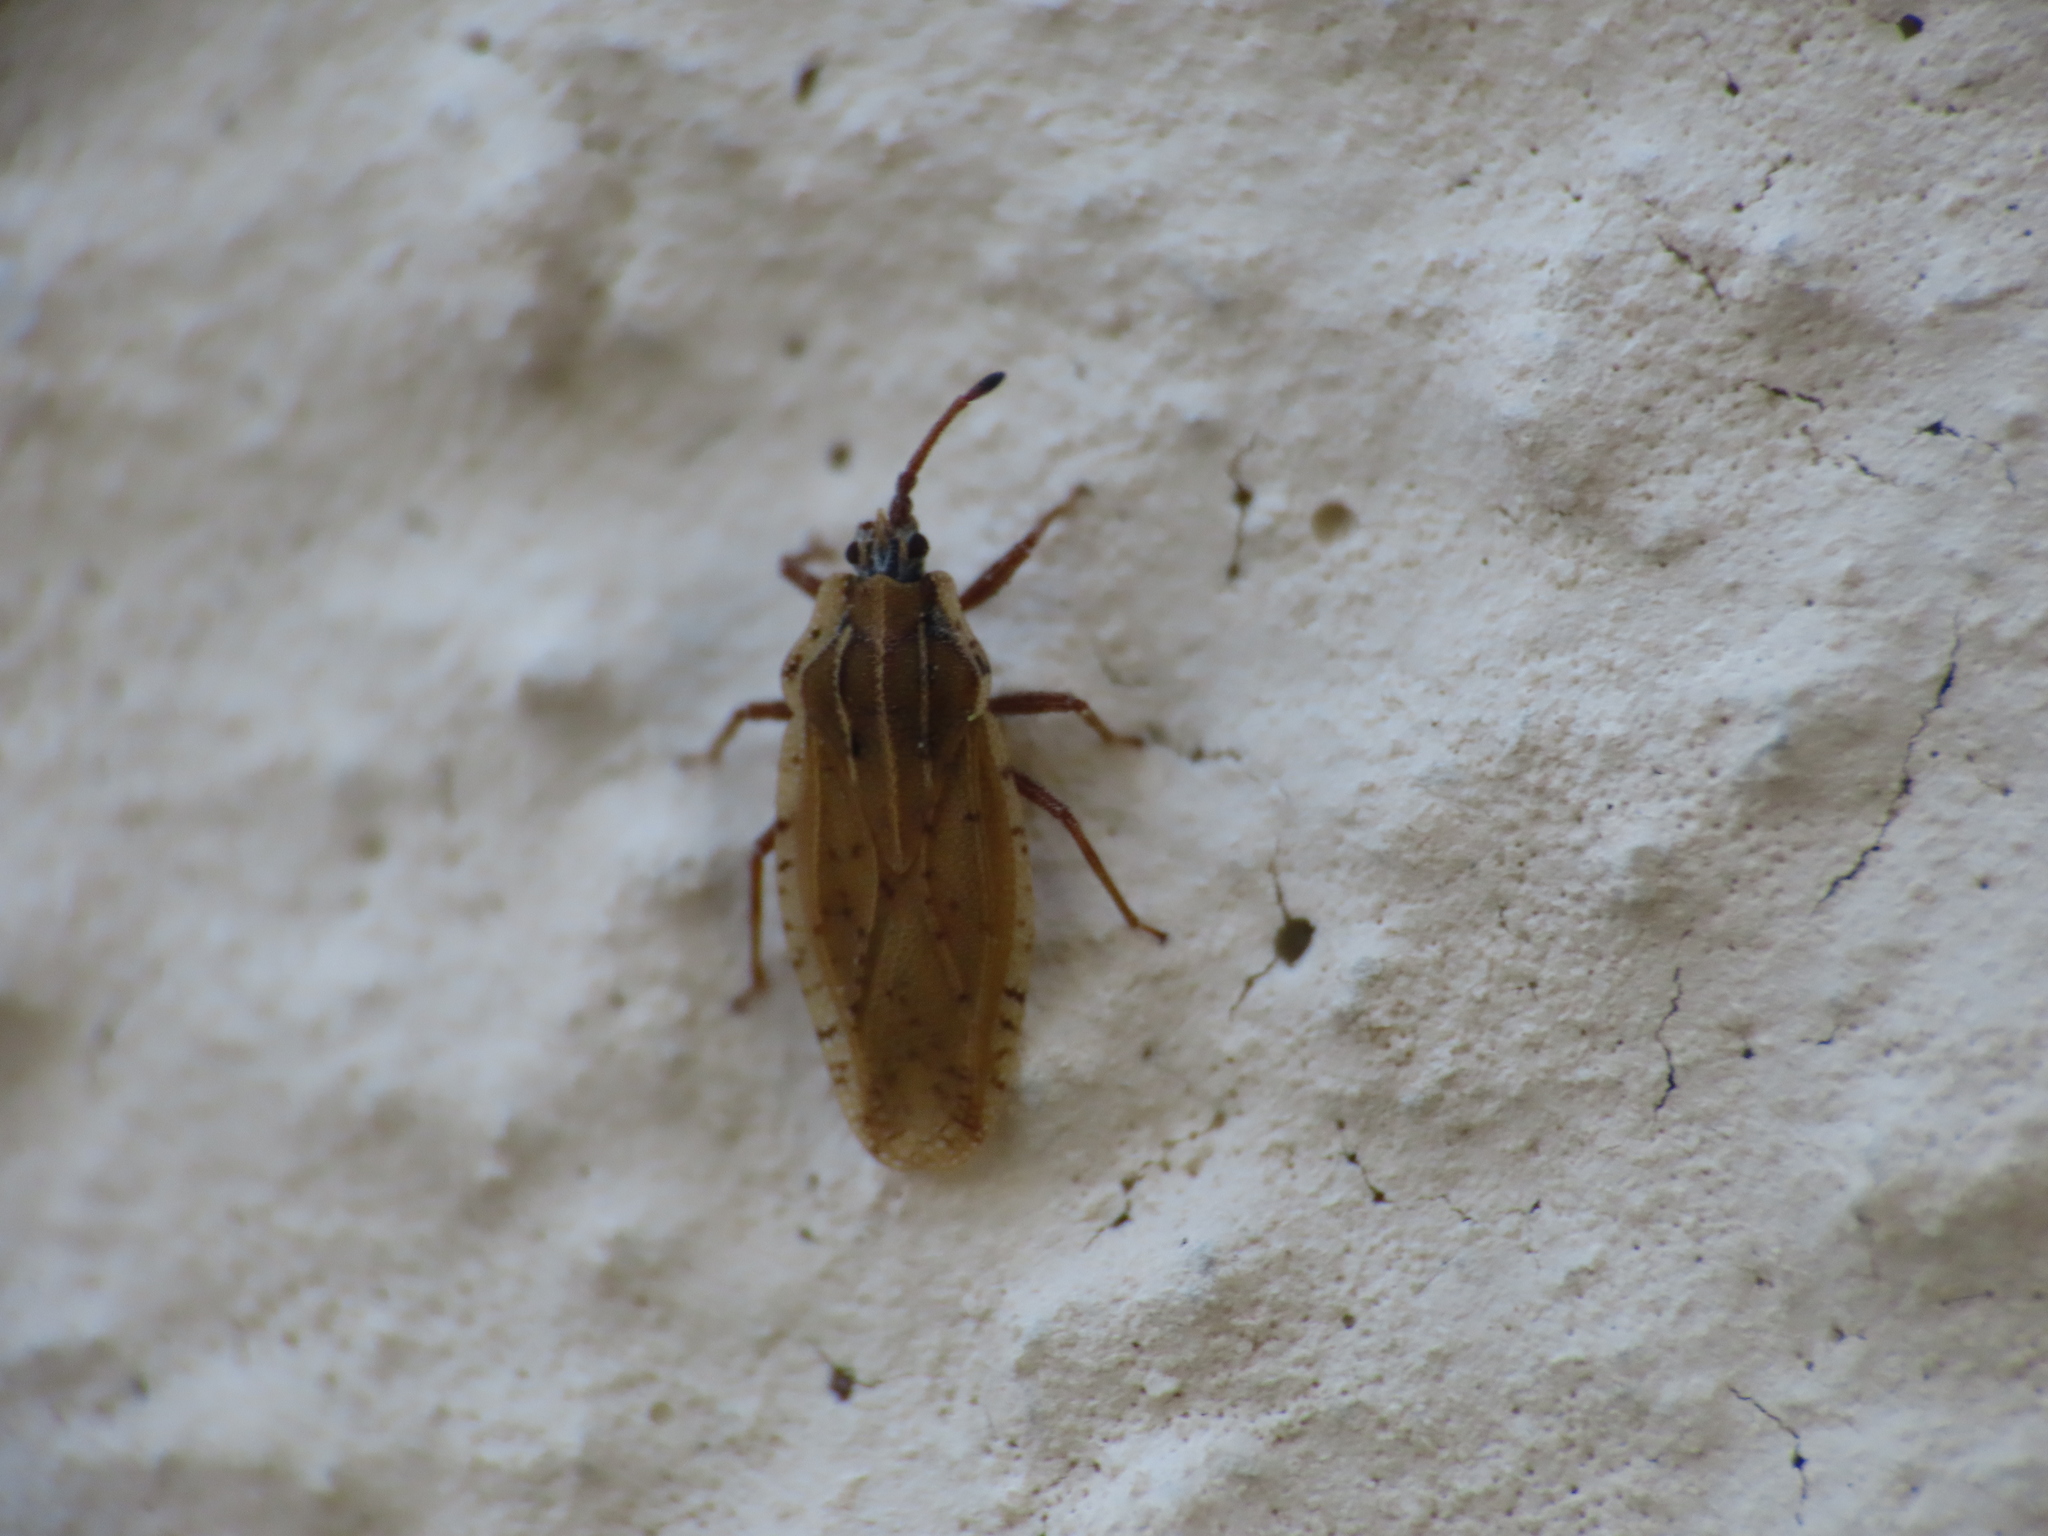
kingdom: Animalia
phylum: Arthropoda
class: Insecta
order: Hemiptera
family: Tingidae
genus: Tingis
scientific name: Tingis auriculata
